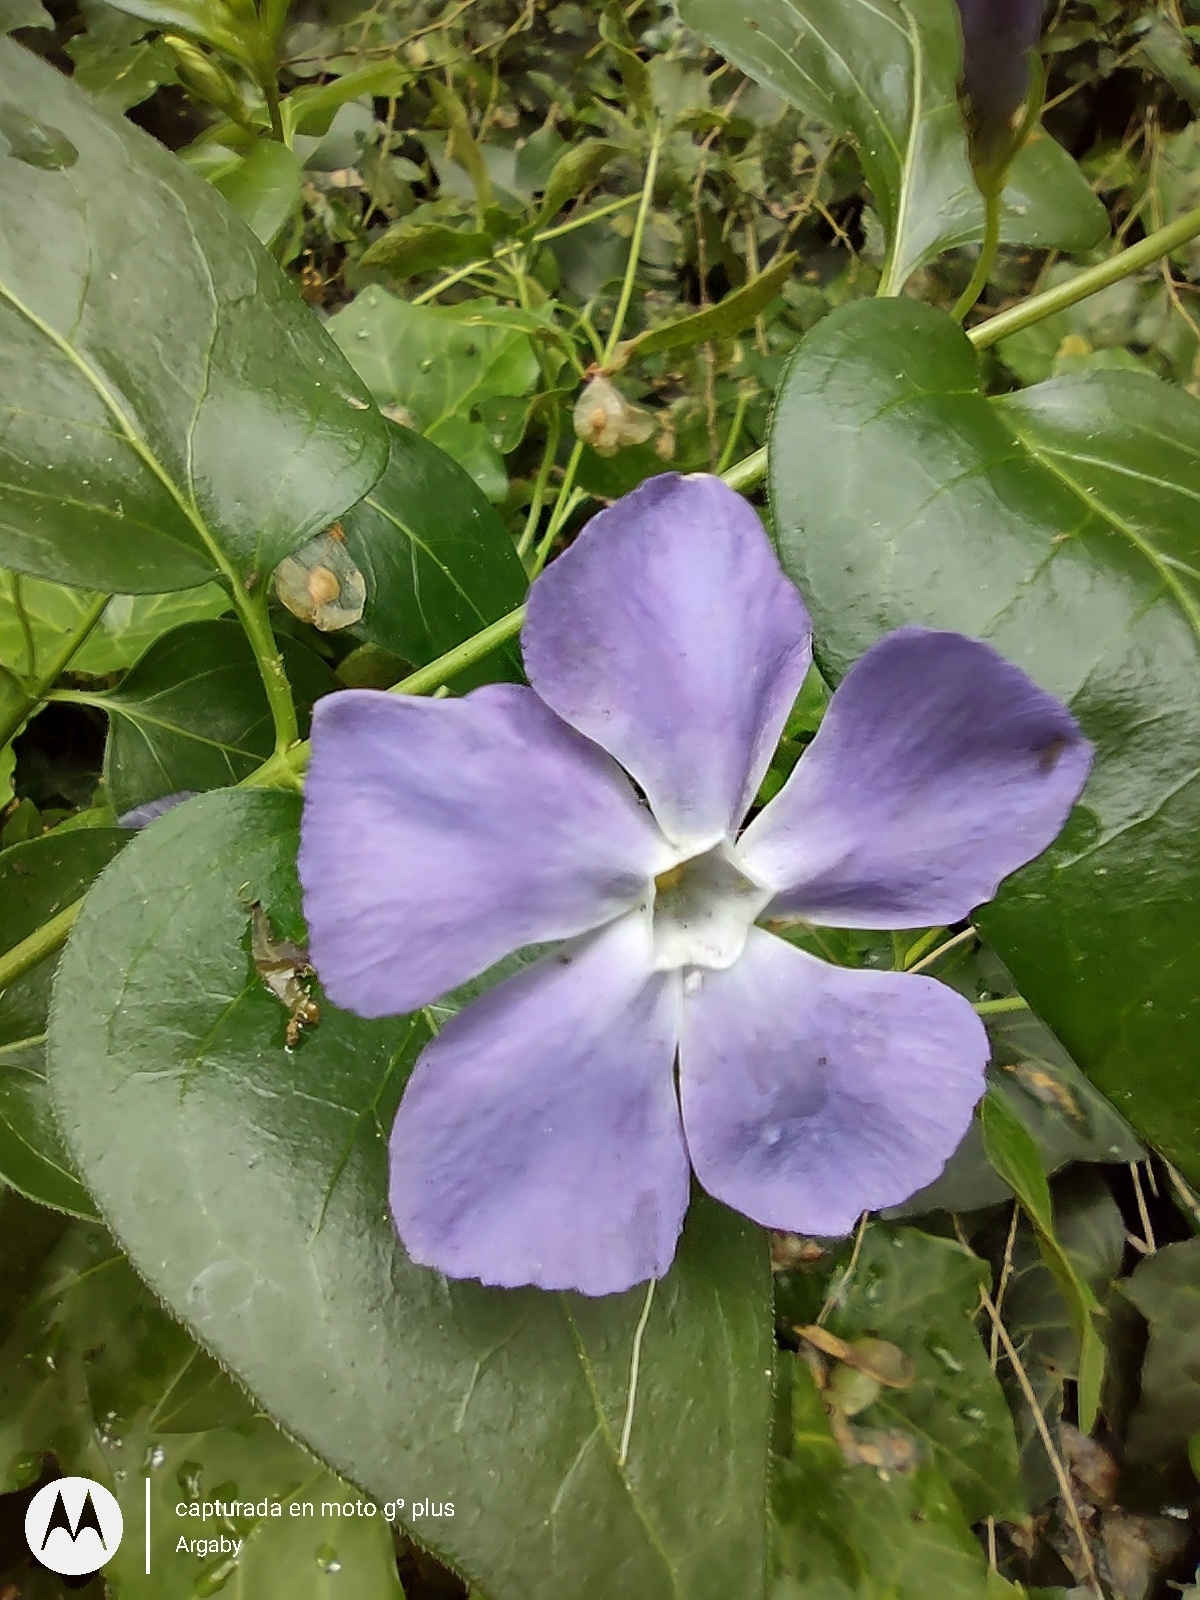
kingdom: Plantae
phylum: Tracheophyta
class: Magnoliopsida
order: Gentianales
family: Apocynaceae
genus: Vinca
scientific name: Vinca major
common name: Greater periwinkle
